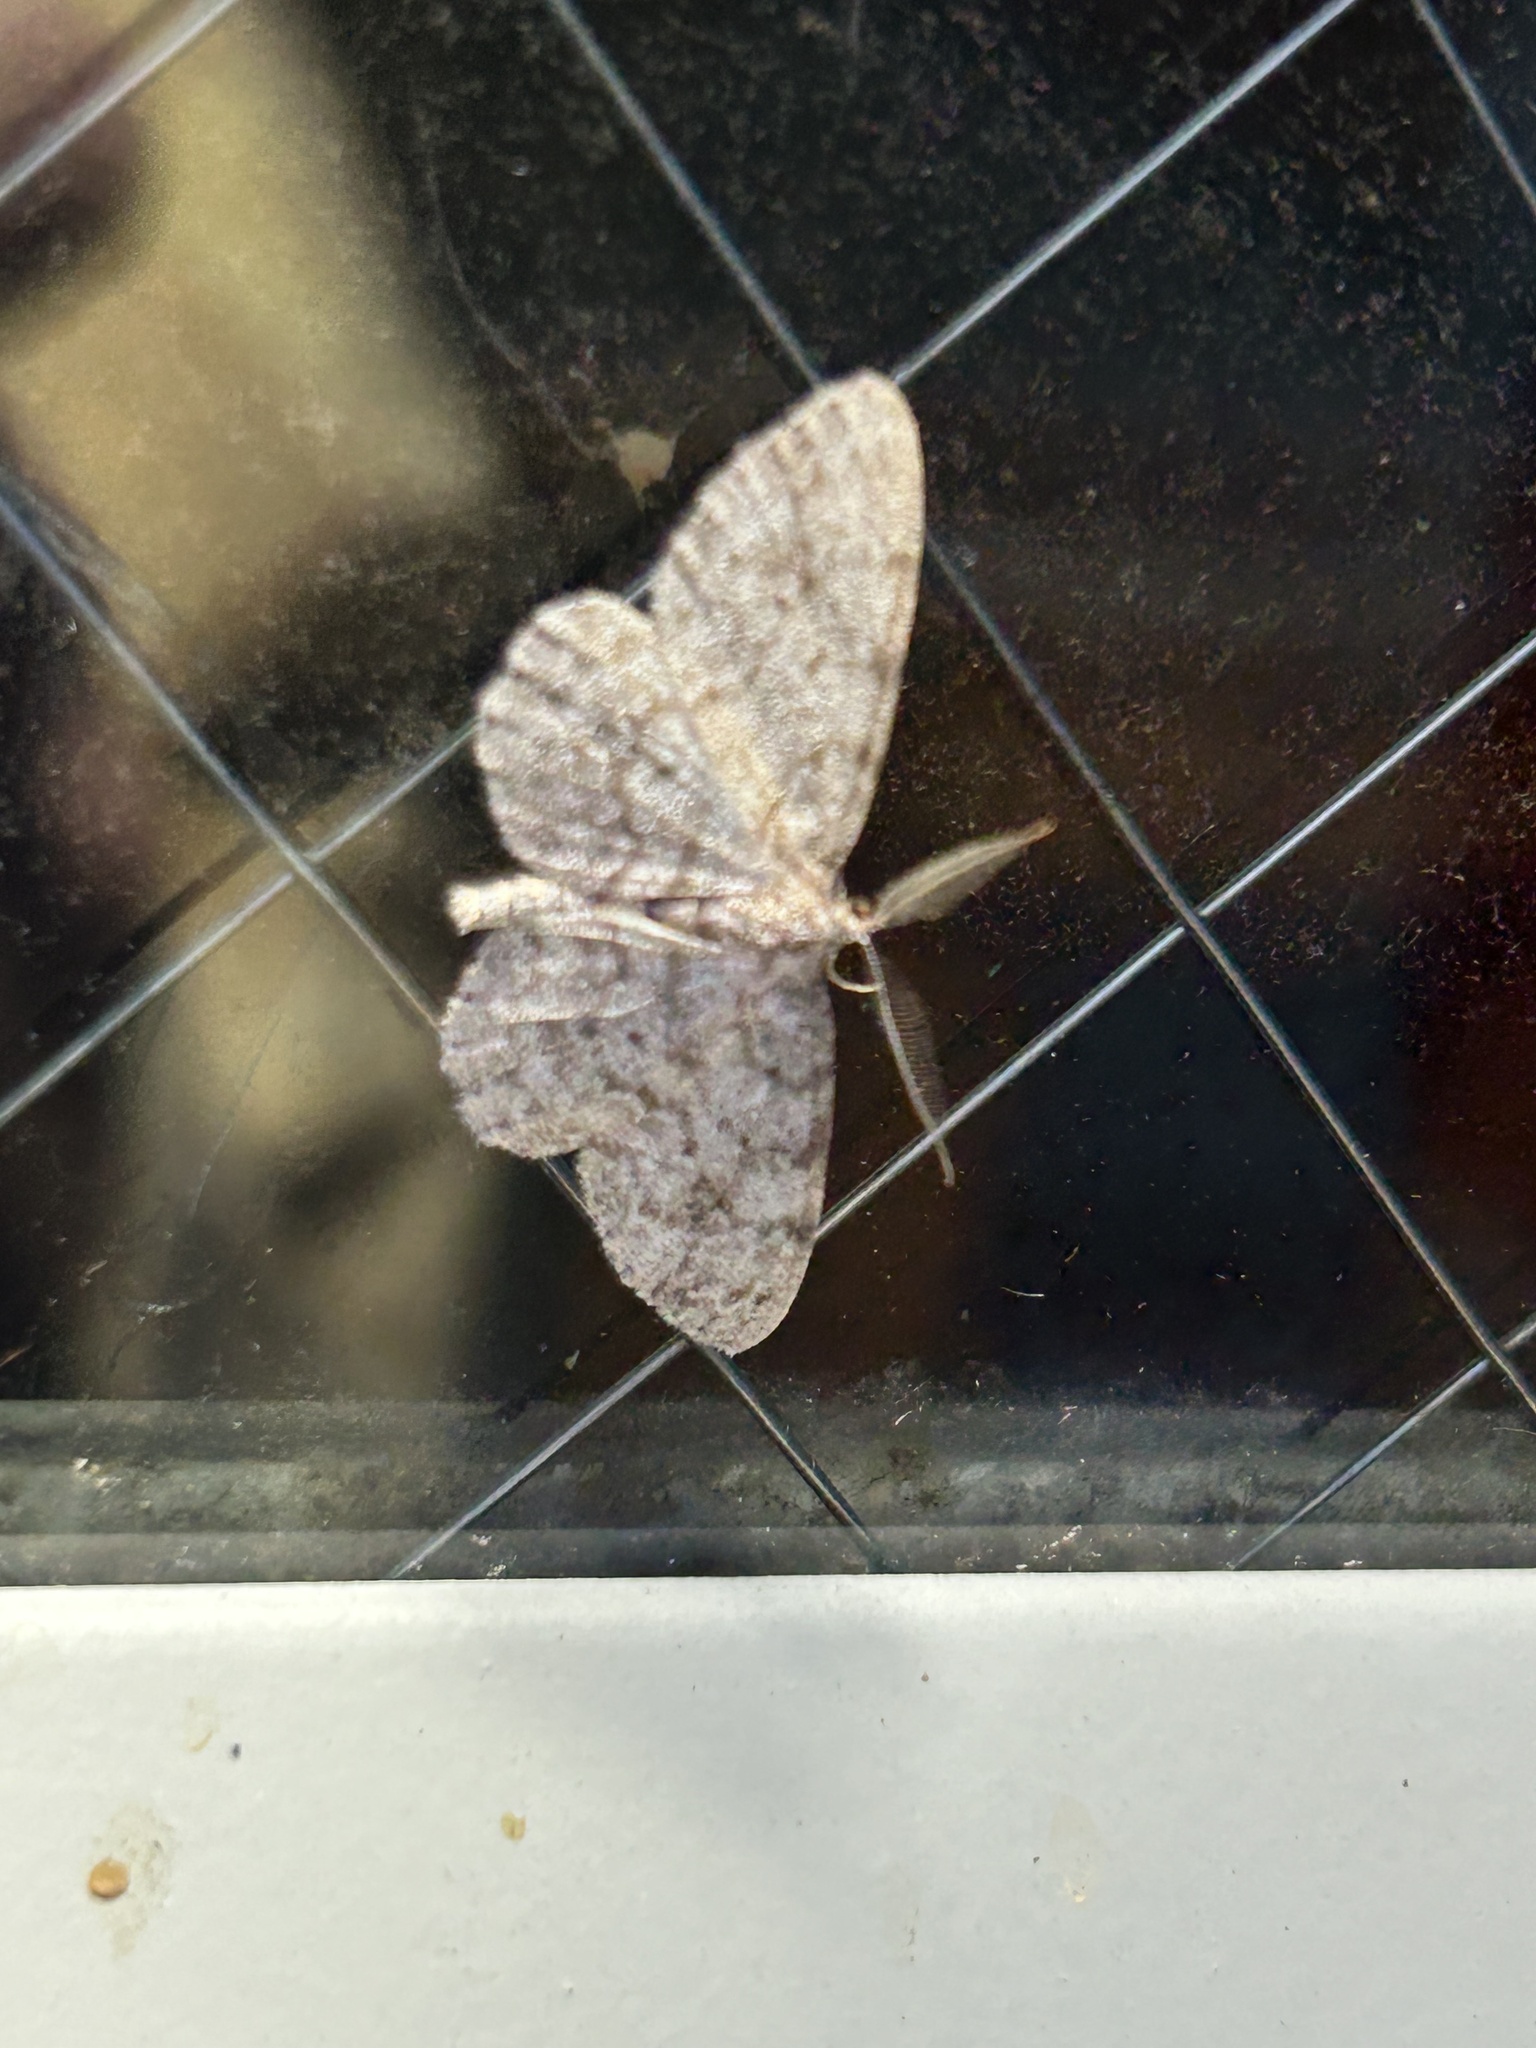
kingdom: Animalia
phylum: Arthropoda
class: Insecta
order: Lepidoptera
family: Geometridae
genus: Protoboarmia
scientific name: Protoboarmia porcelaria
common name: Porcelain gray
